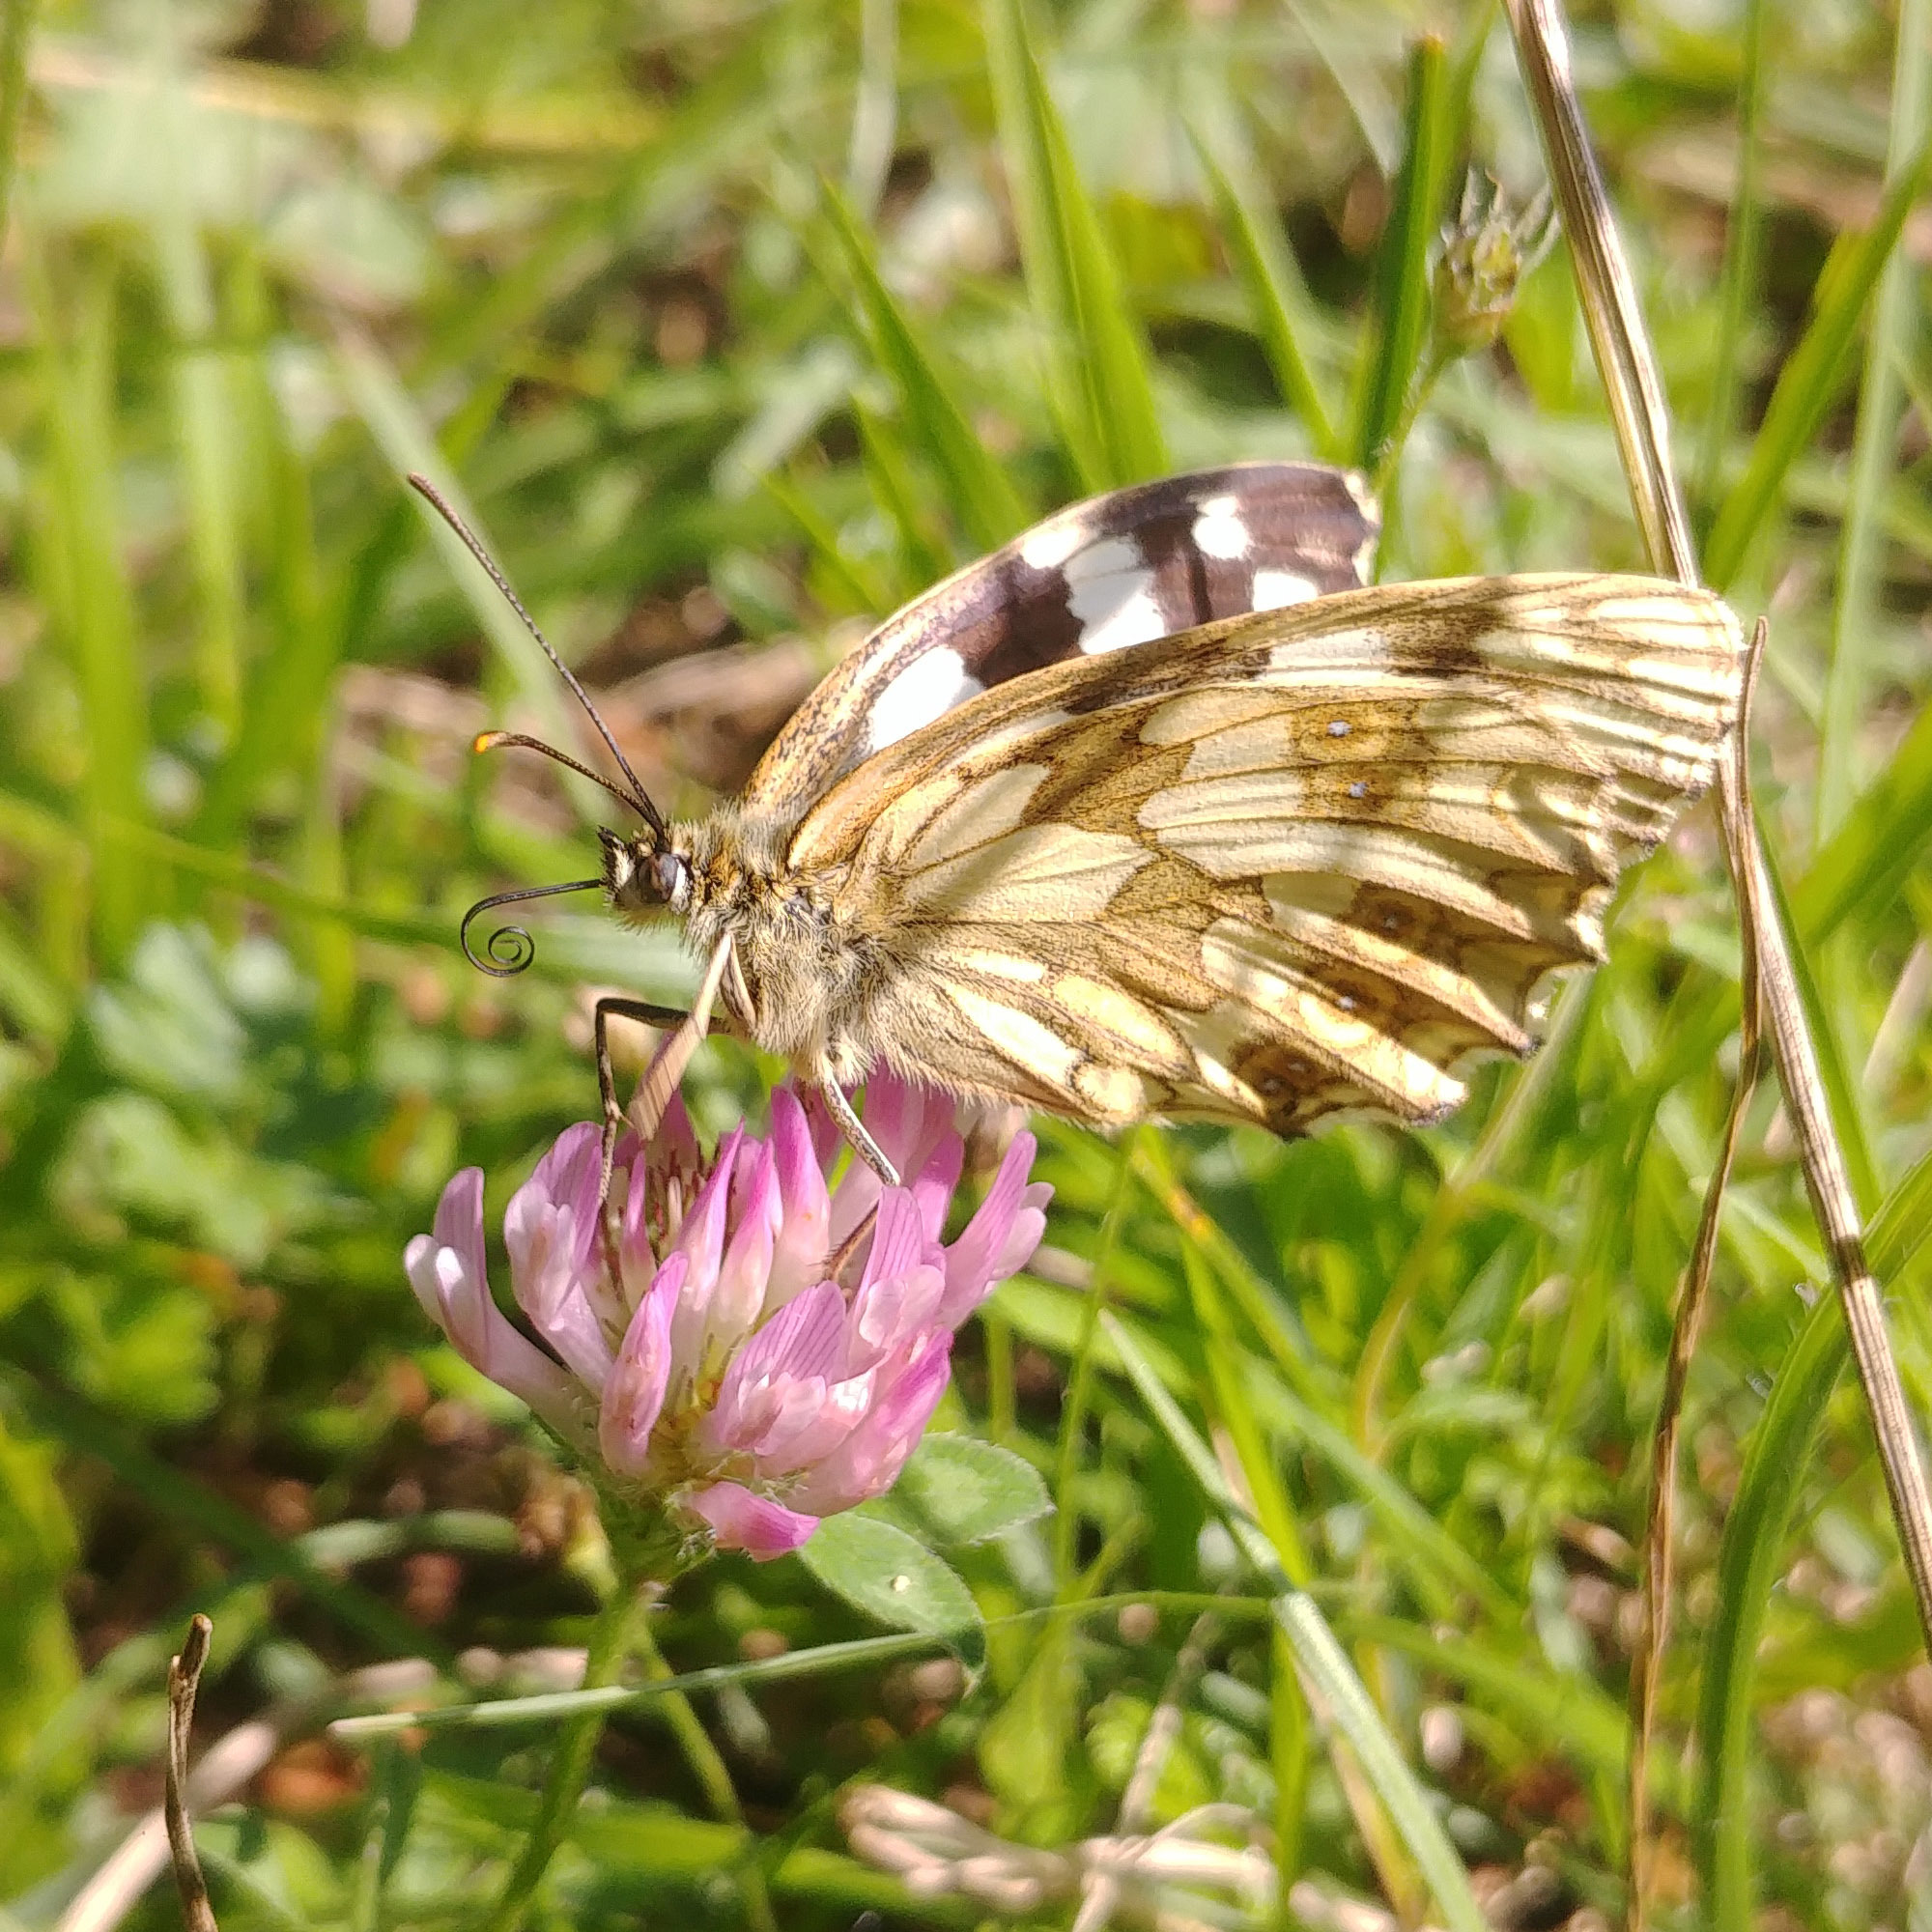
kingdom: Animalia
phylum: Arthropoda
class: Insecta
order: Lepidoptera
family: Nymphalidae
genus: Melanargia
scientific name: Melanargia galathea
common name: Marbled white
